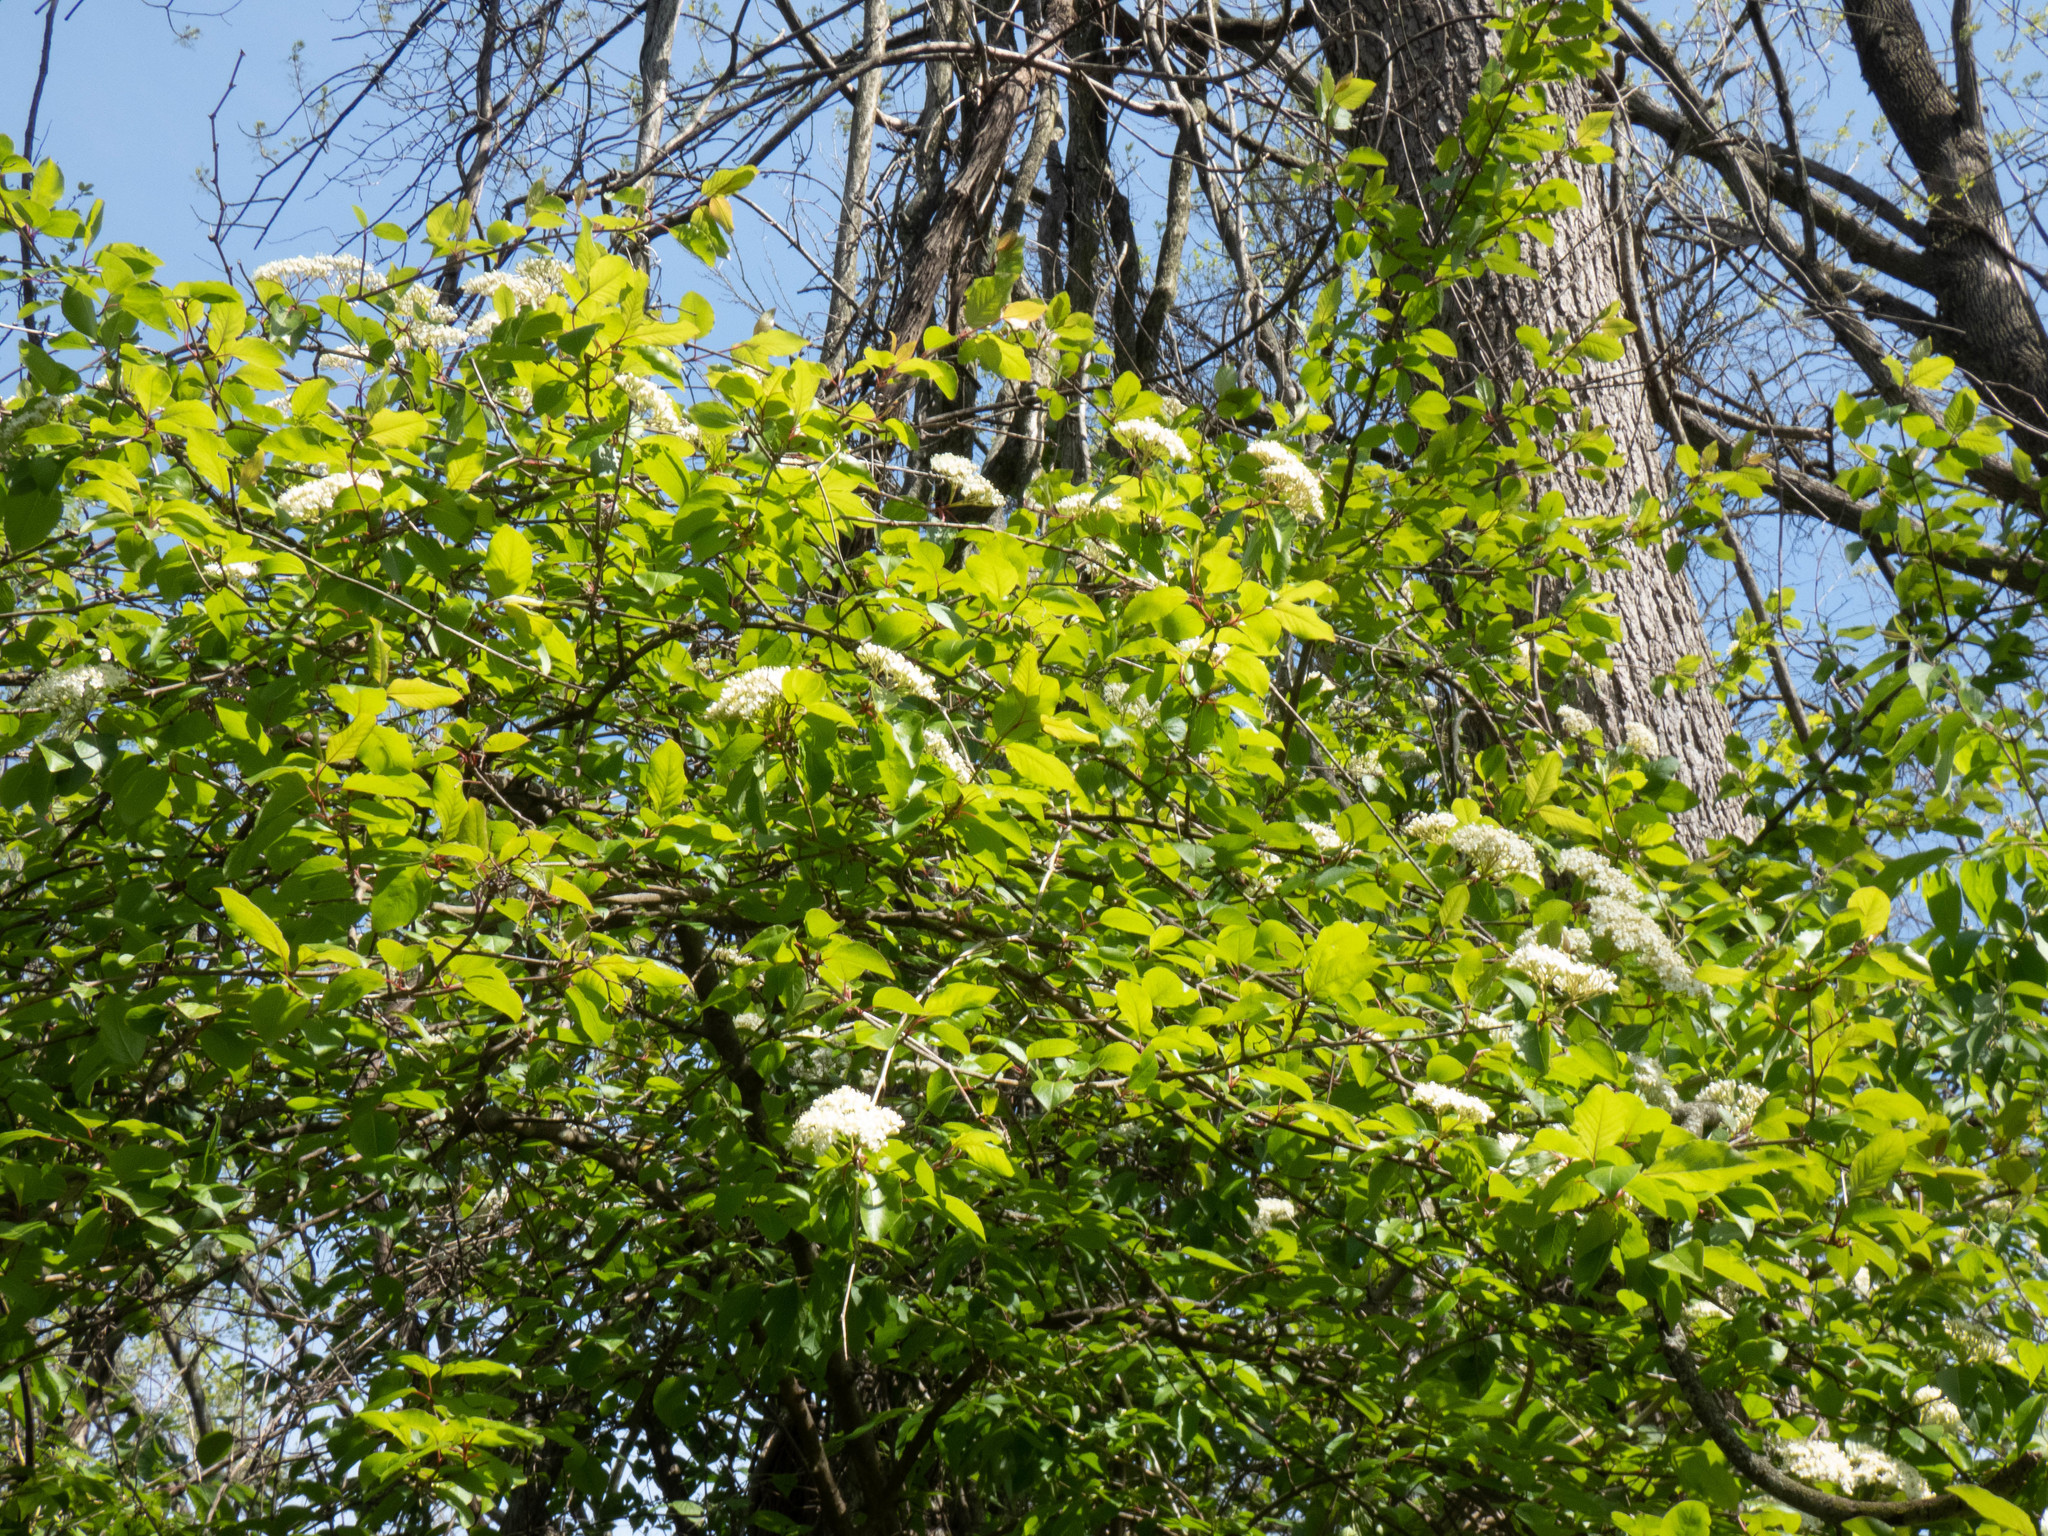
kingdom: Plantae
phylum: Tracheophyta
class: Magnoliopsida
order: Dipsacales
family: Viburnaceae
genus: Viburnum
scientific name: Viburnum prunifolium
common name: Black haw
